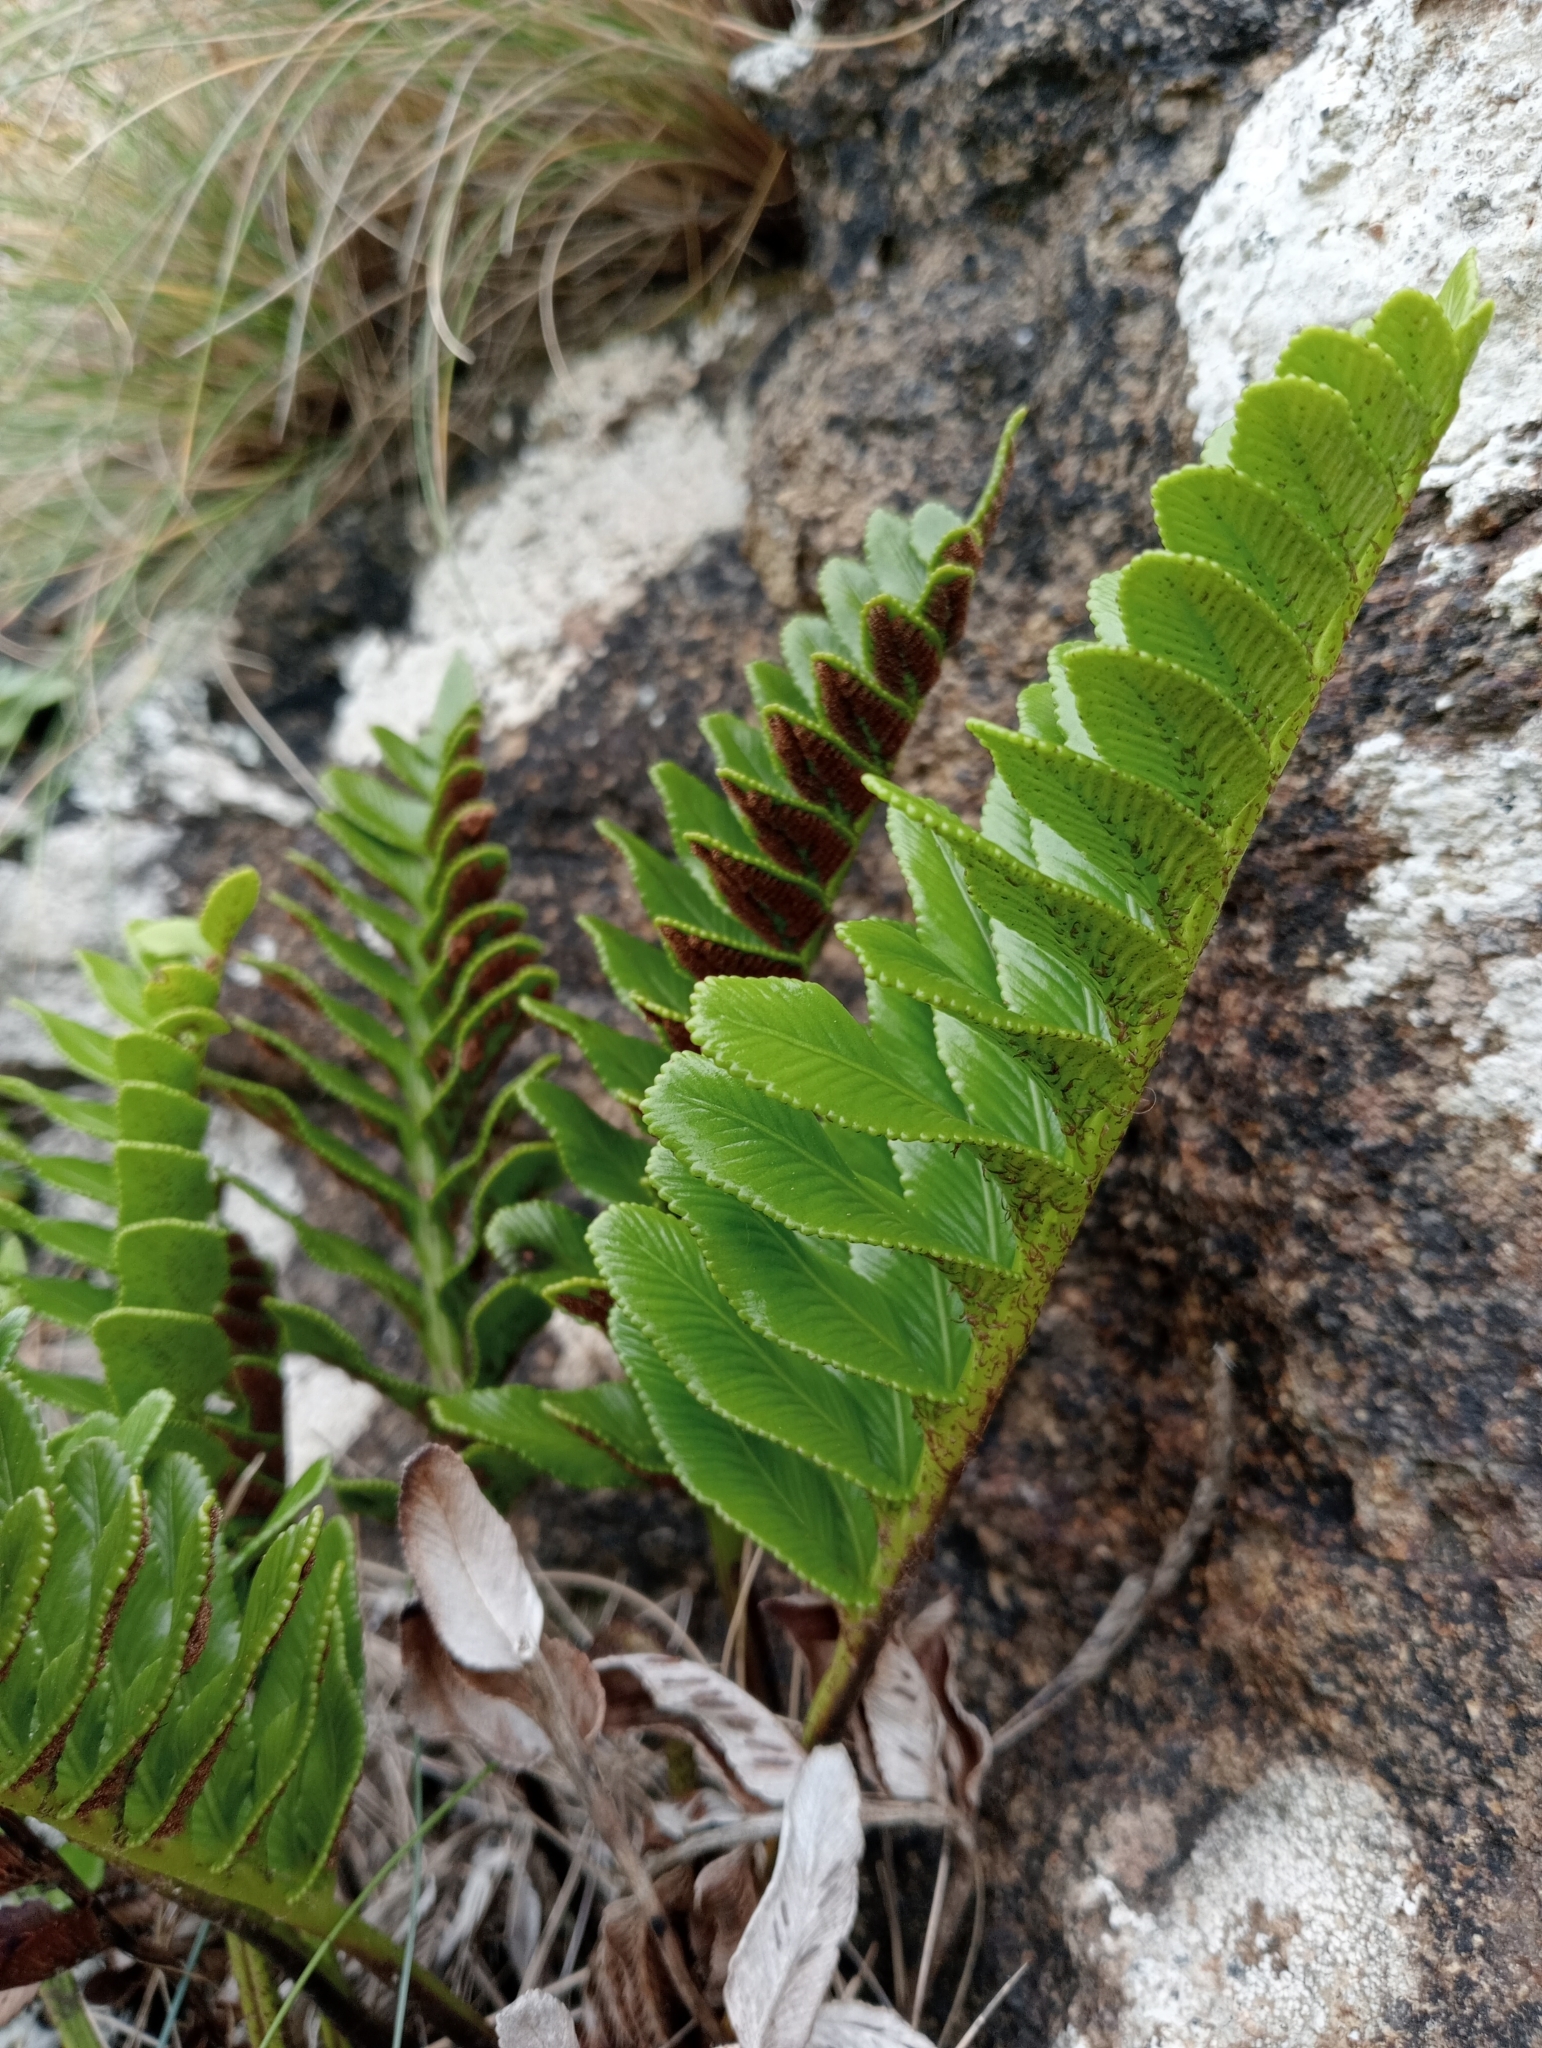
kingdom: Plantae
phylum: Tracheophyta
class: Polypodiopsida
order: Polypodiales
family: Aspleniaceae
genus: Asplenium
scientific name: Asplenium obtusatum
